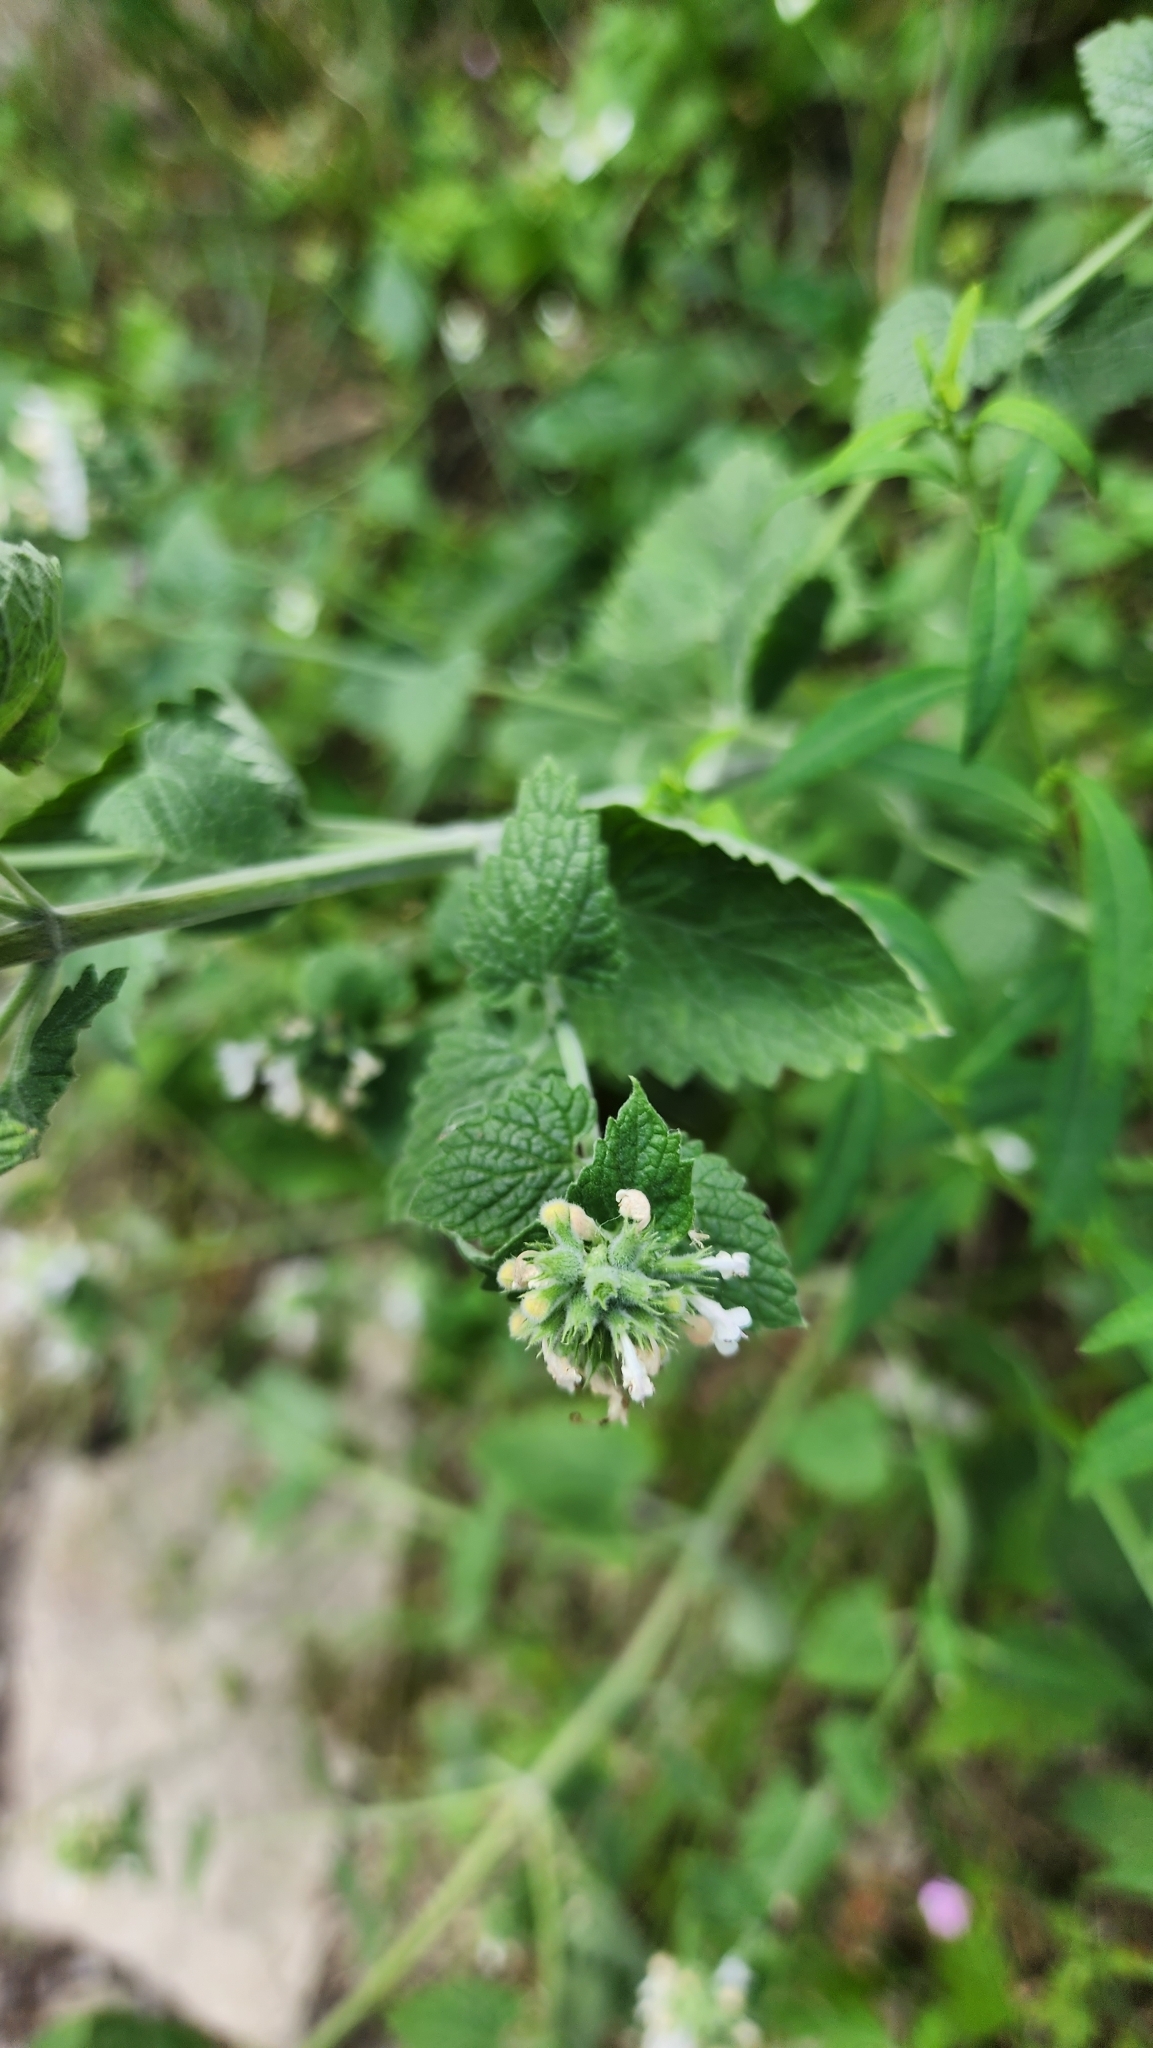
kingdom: Plantae
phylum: Tracheophyta
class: Magnoliopsida
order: Lamiales
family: Lamiaceae
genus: Nepeta
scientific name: Nepeta cataria
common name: Catnip
